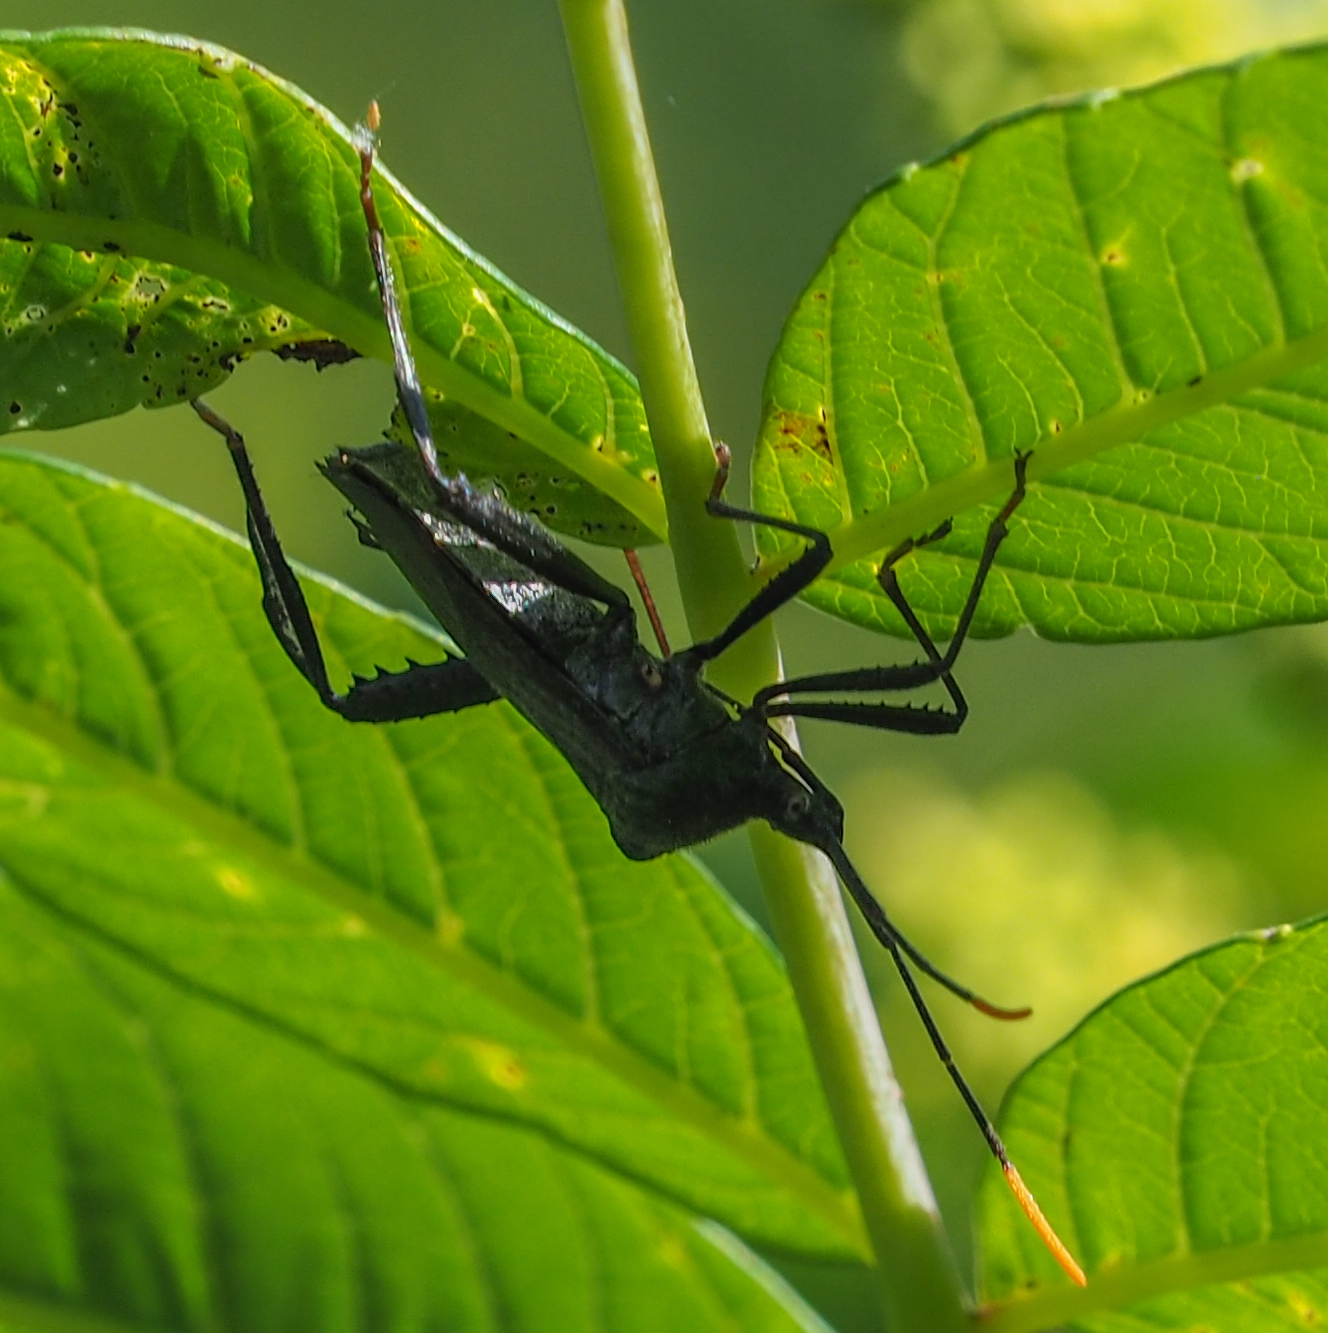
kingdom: Animalia
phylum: Arthropoda
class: Insecta
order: Hemiptera
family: Coreidae
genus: Acanthocephala
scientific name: Acanthocephala terminalis
